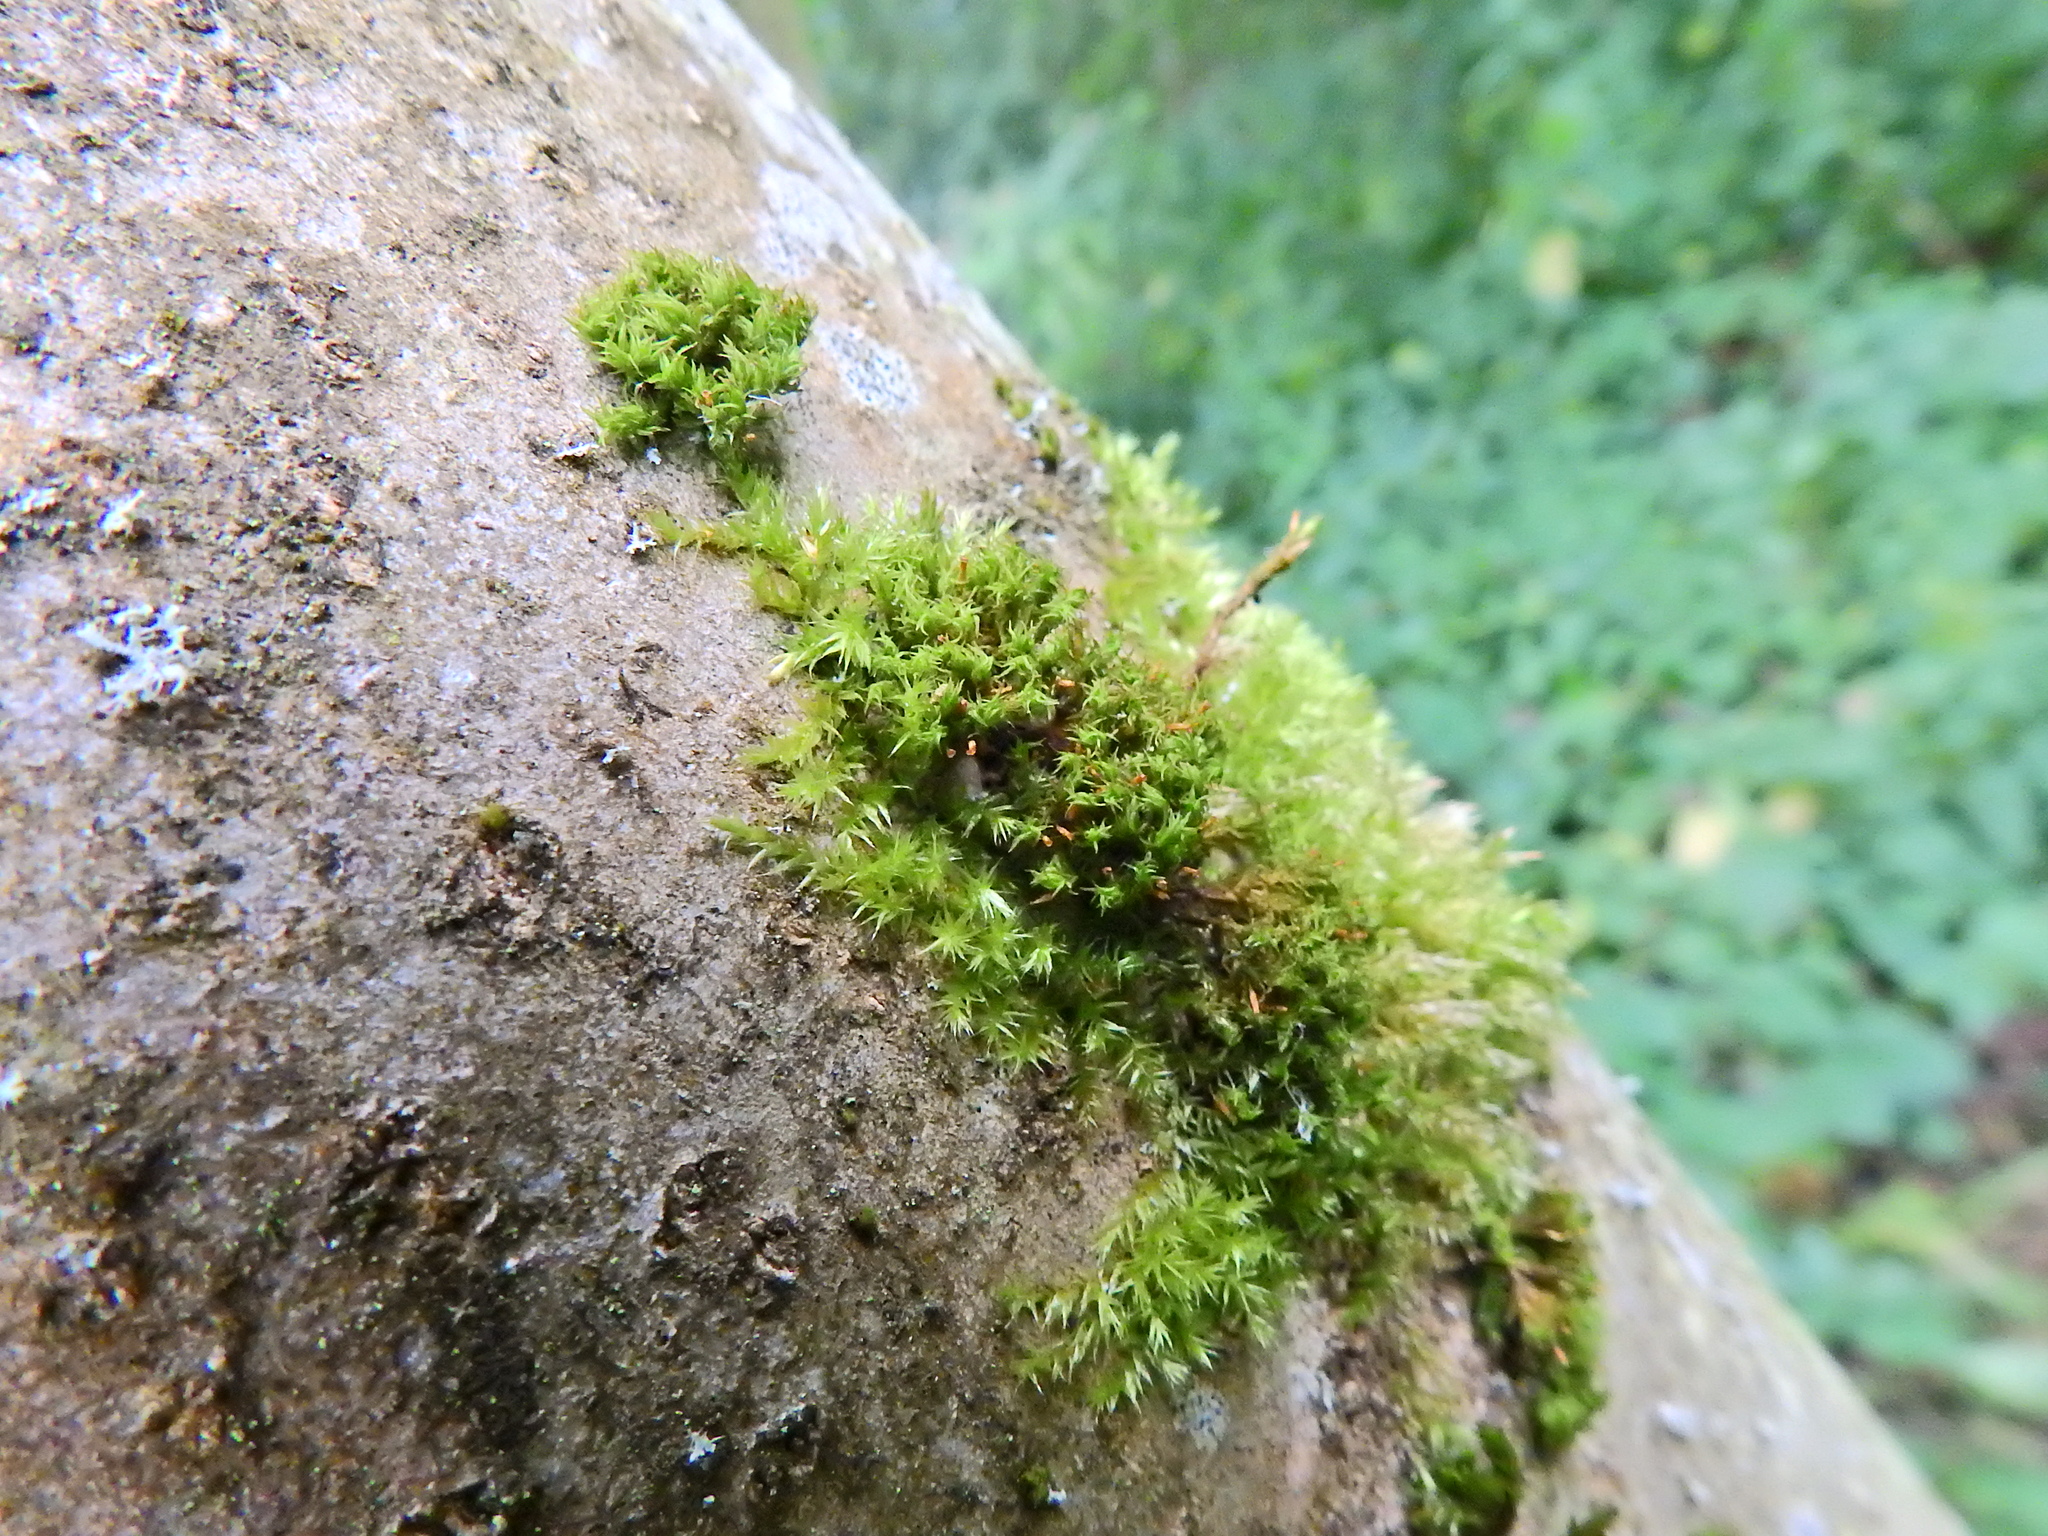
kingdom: Plantae
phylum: Bryophyta
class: Bryopsida
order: Orthotrichales
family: Orthotrichaceae
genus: Orthotrichum
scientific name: Orthotrichum pulchellum
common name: Elegant bristle-moss
